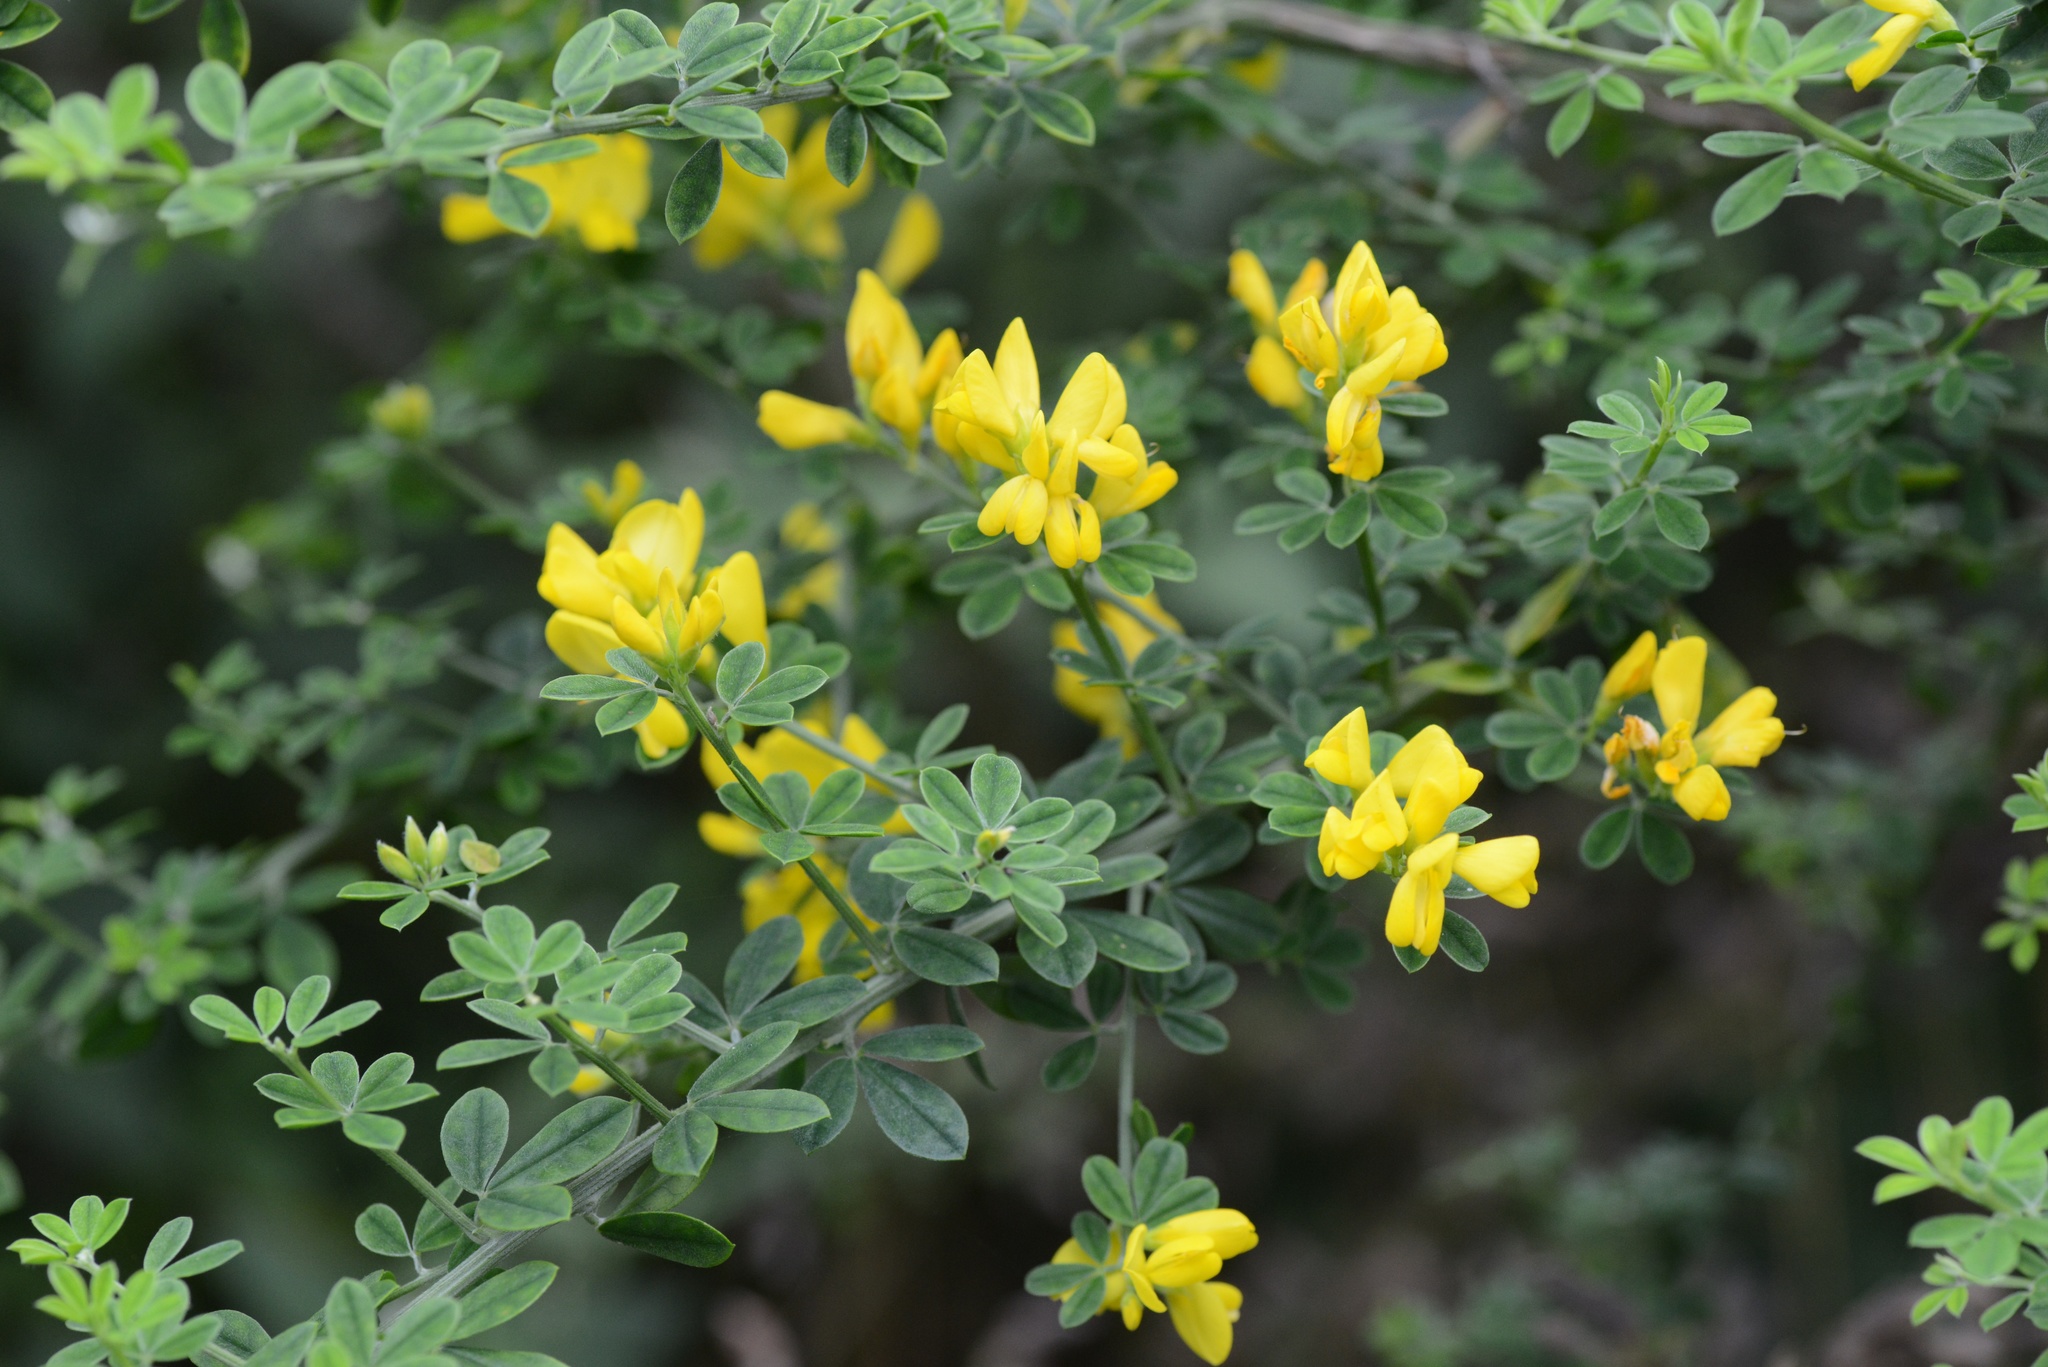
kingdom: Plantae
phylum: Tracheophyta
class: Magnoliopsida
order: Fabales
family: Fabaceae
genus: Genista
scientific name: Genista monspessulana
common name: Montpellier broom
